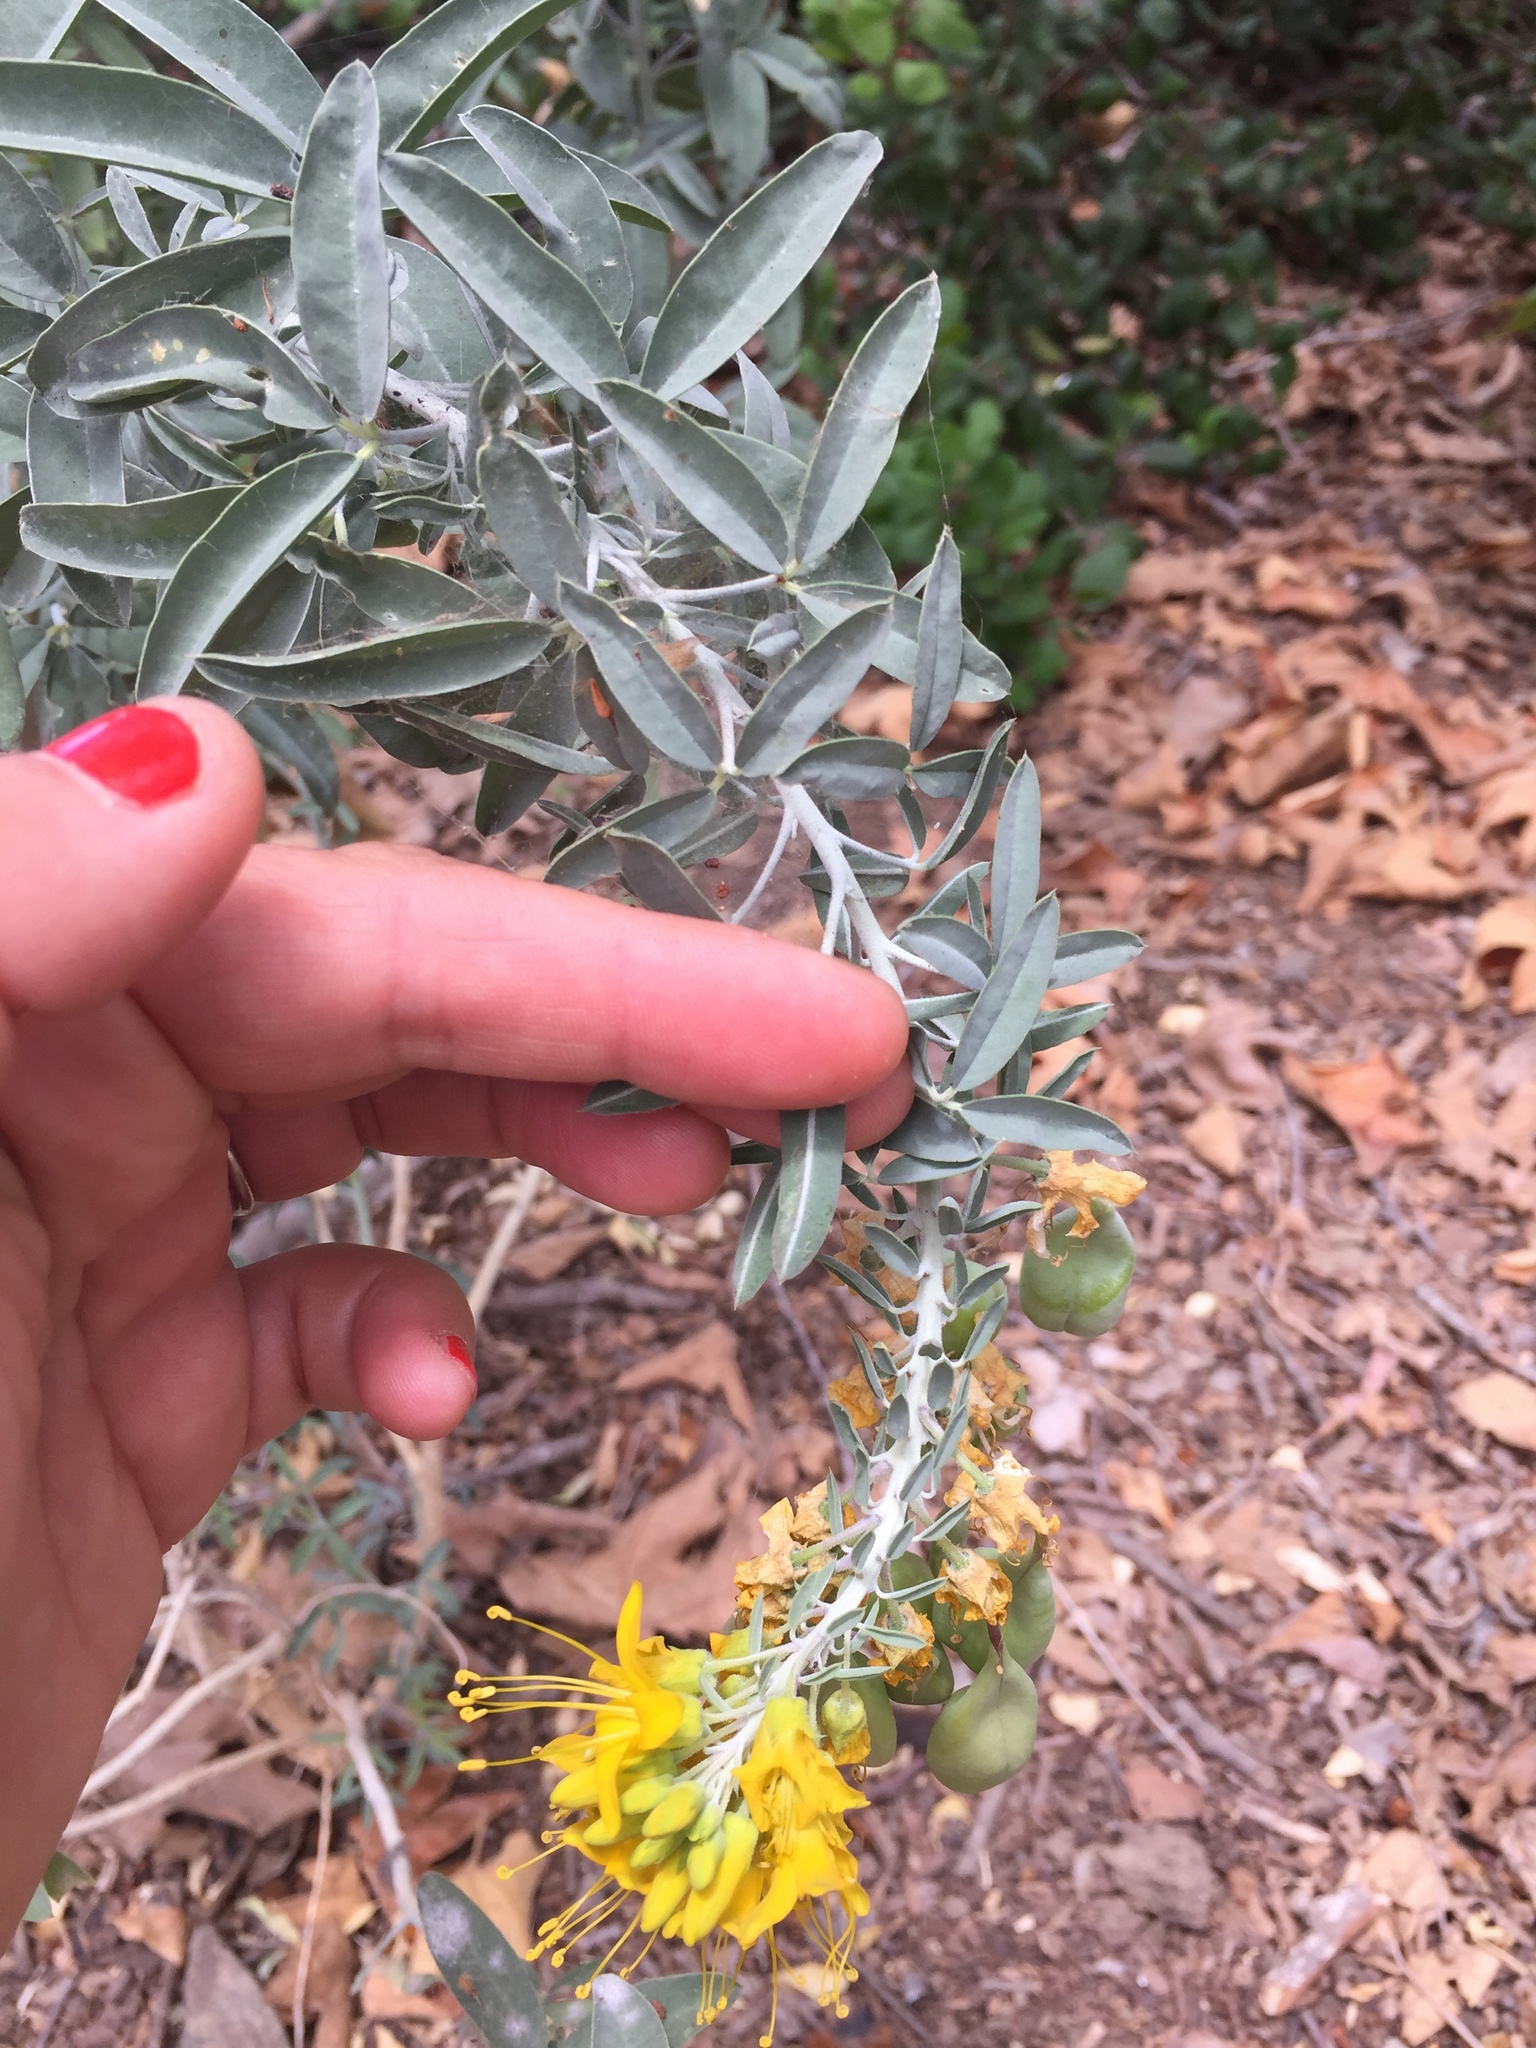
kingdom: Plantae
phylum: Tracheophyta
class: Magnoliopsida
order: Brassicales
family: Cleomaceae
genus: Cleomella
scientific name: Cleomella arborea
